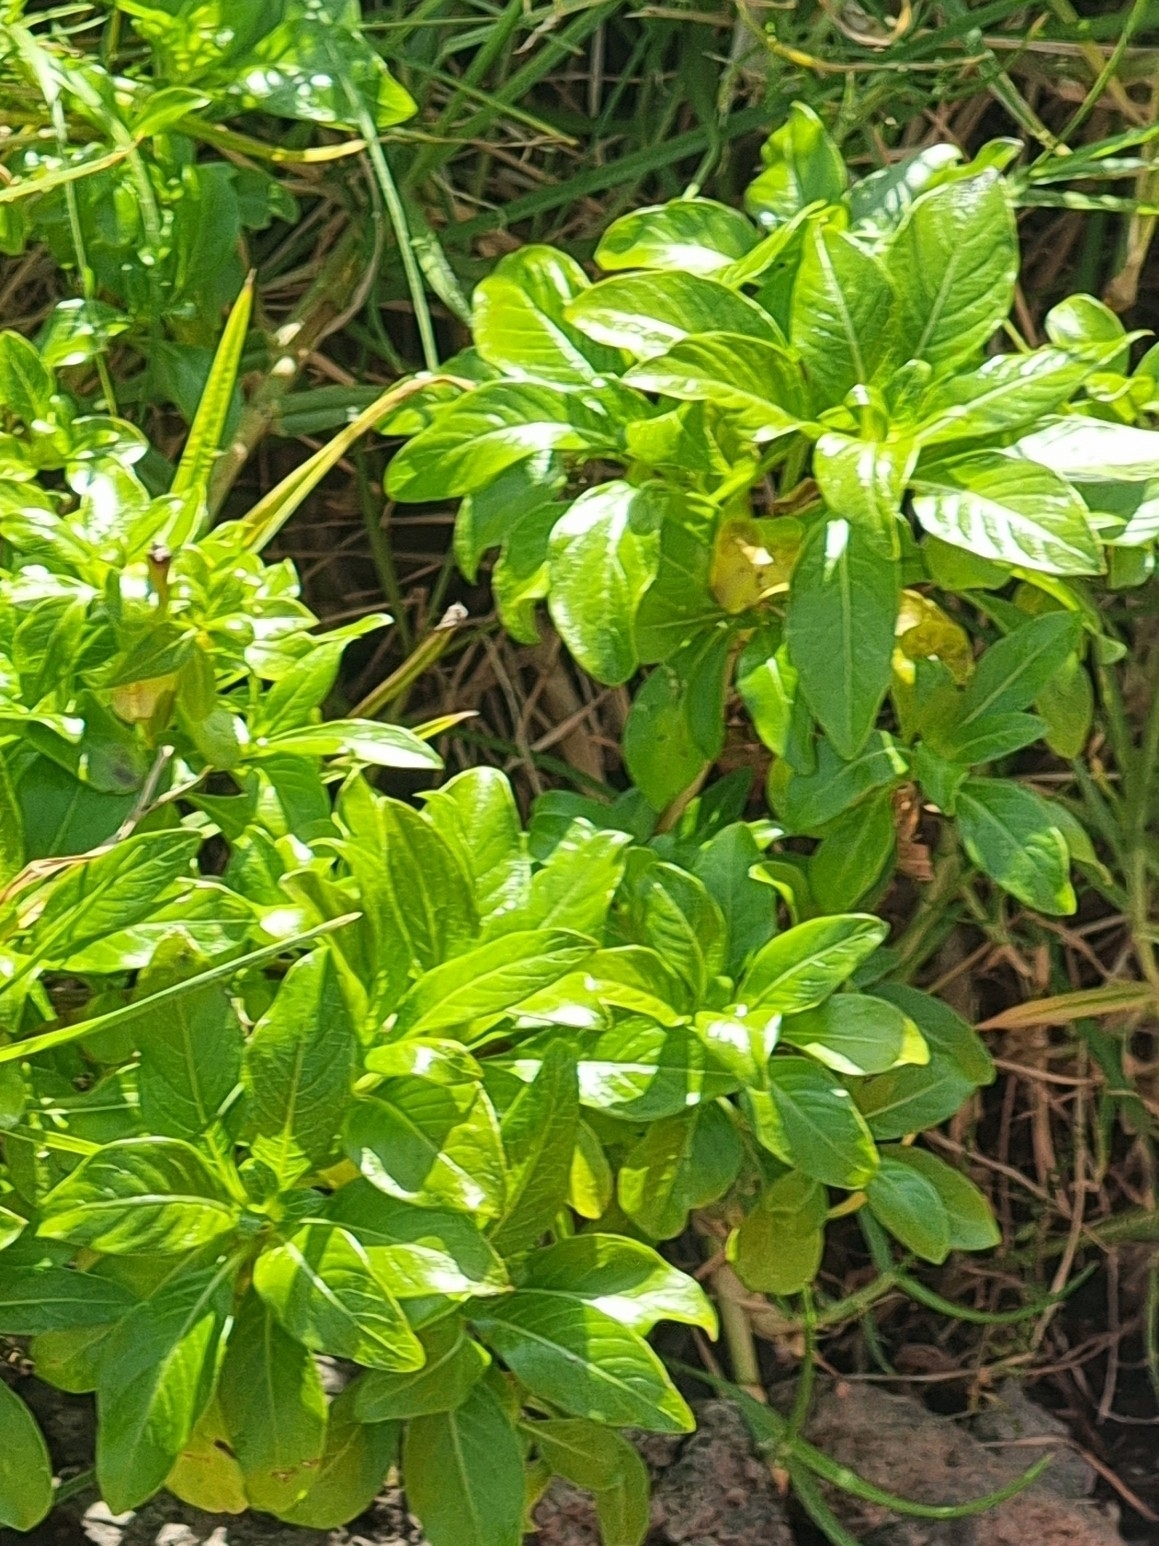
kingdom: Plantae
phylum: Tracheophyta
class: Magnoliopsida
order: Gentianales
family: Rubiaceae
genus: Phyllis
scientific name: Phyllis nobla
